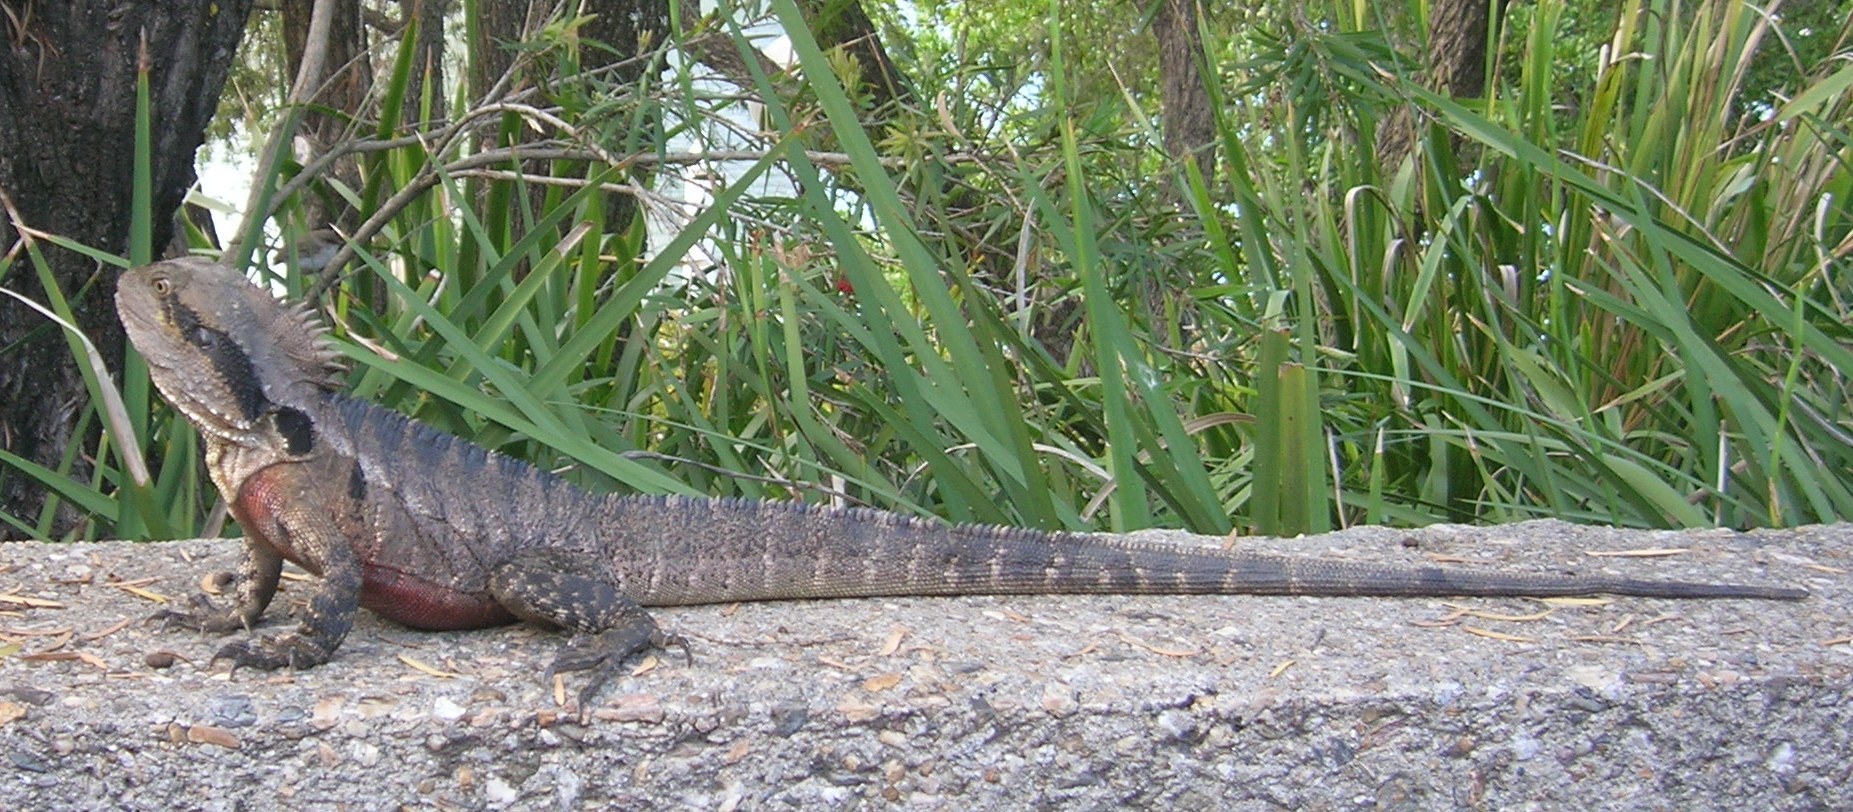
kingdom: Animalia
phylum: Chordata
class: Squamata
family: Agamidae
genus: Intellagama
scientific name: Intellagama lesueurii
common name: Eastern water dragon
